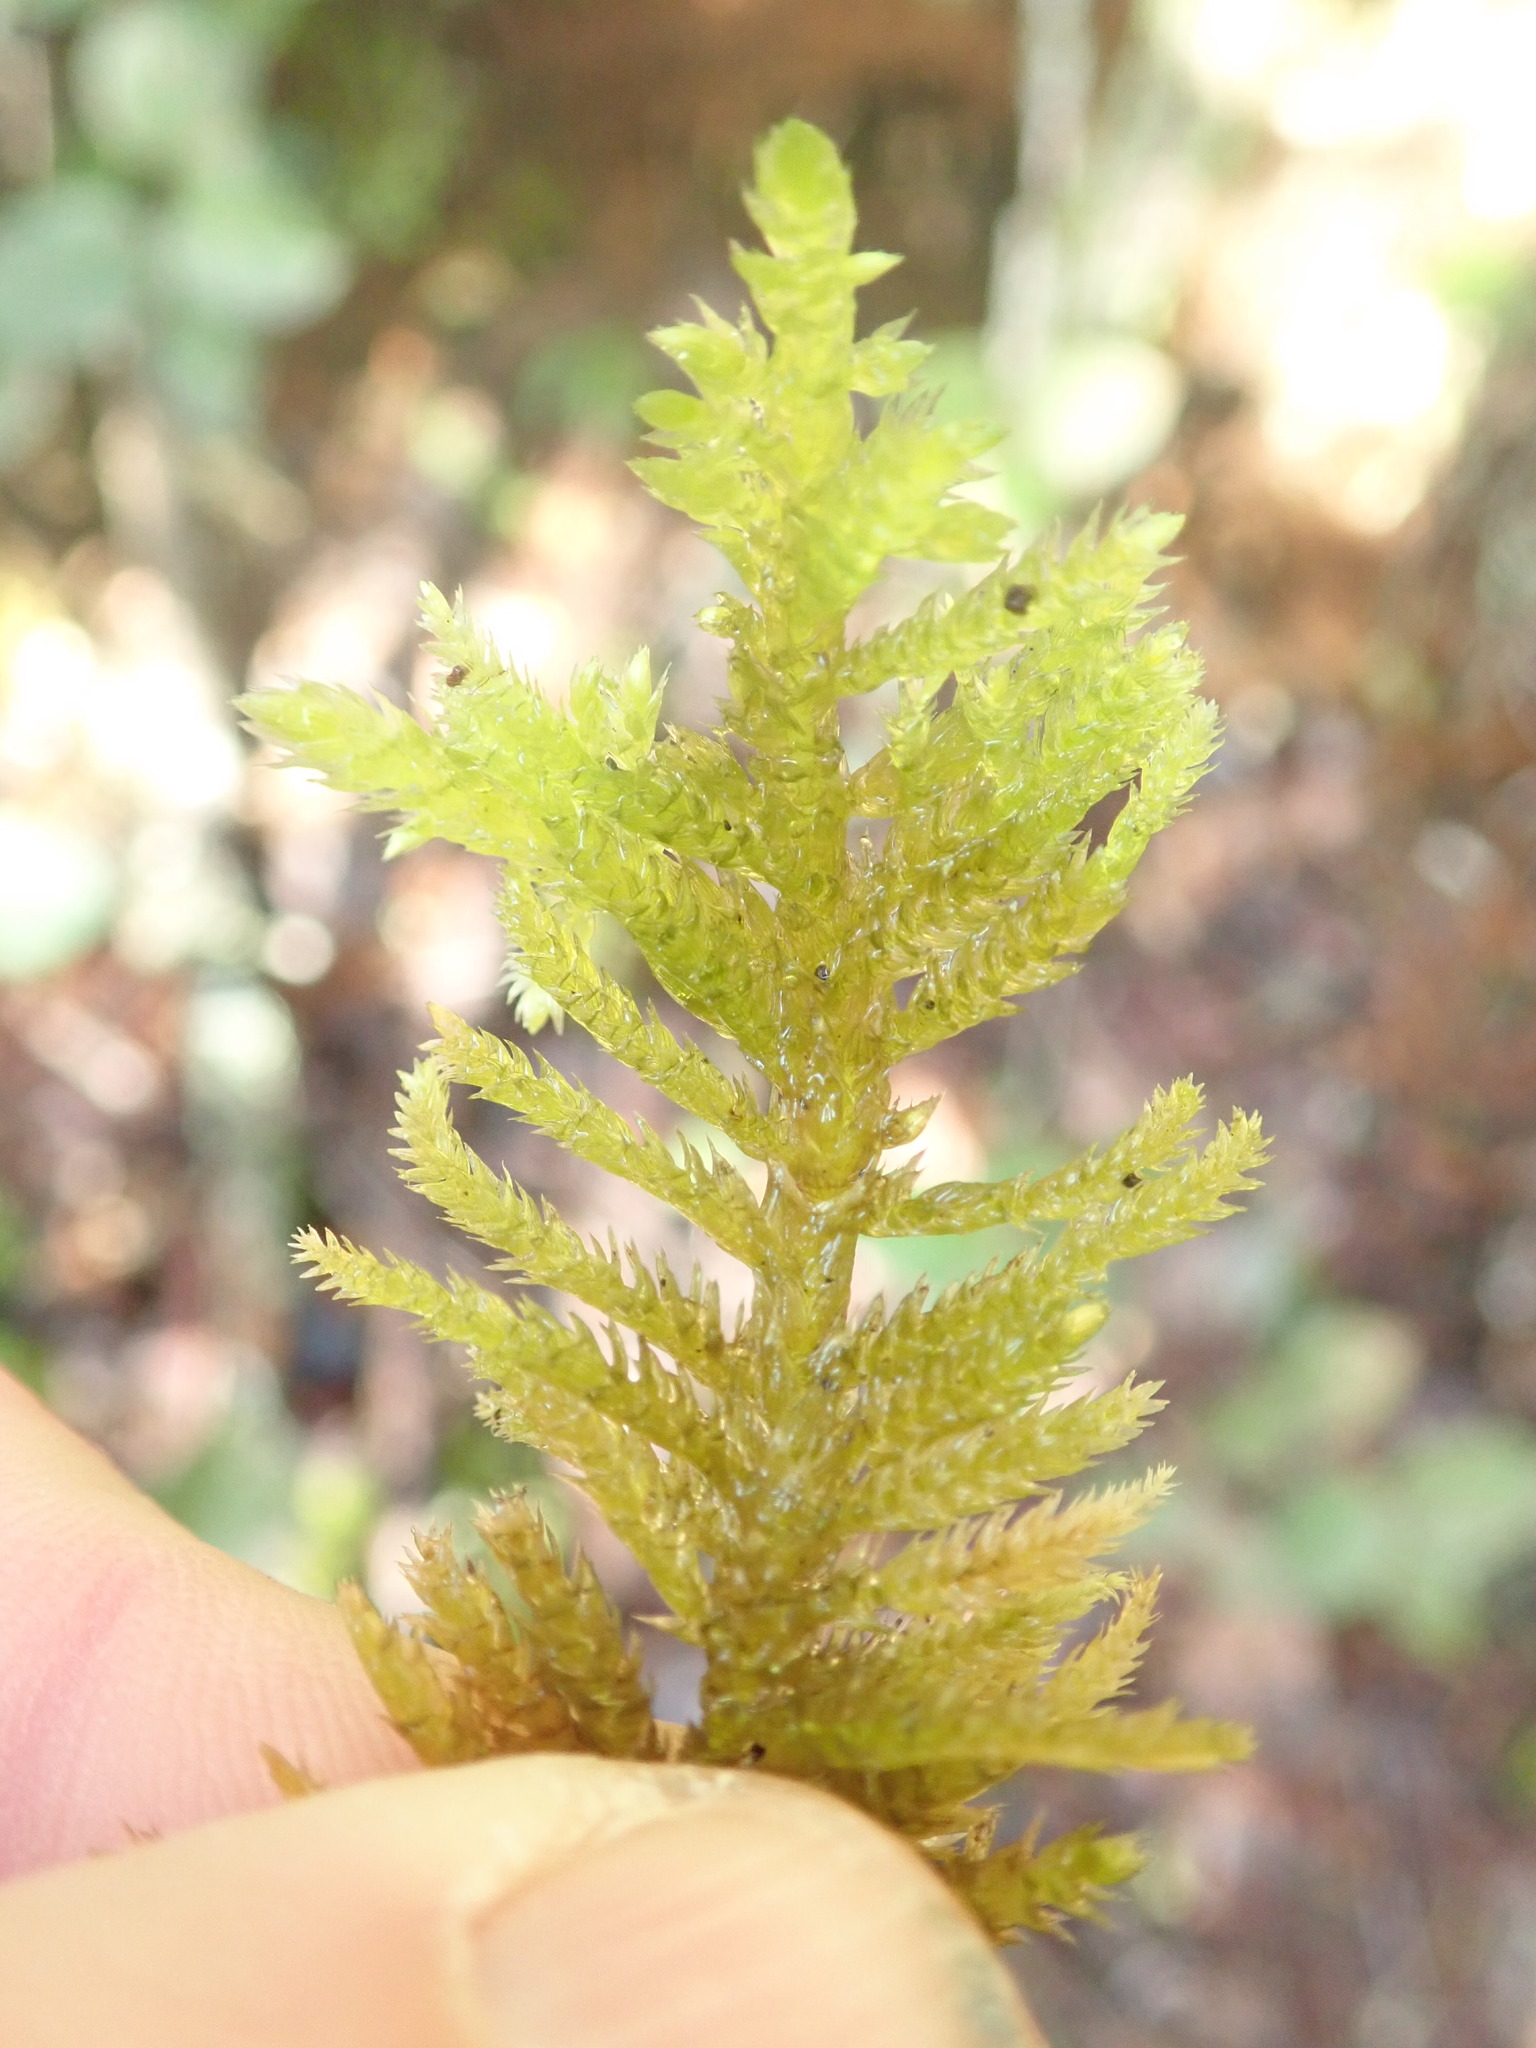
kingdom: Plantae
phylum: Bryophyta
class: Bryopsida
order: Hypnales
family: Brachytheciaceae
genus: Homalothecium
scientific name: Homalothecium megaptilum
